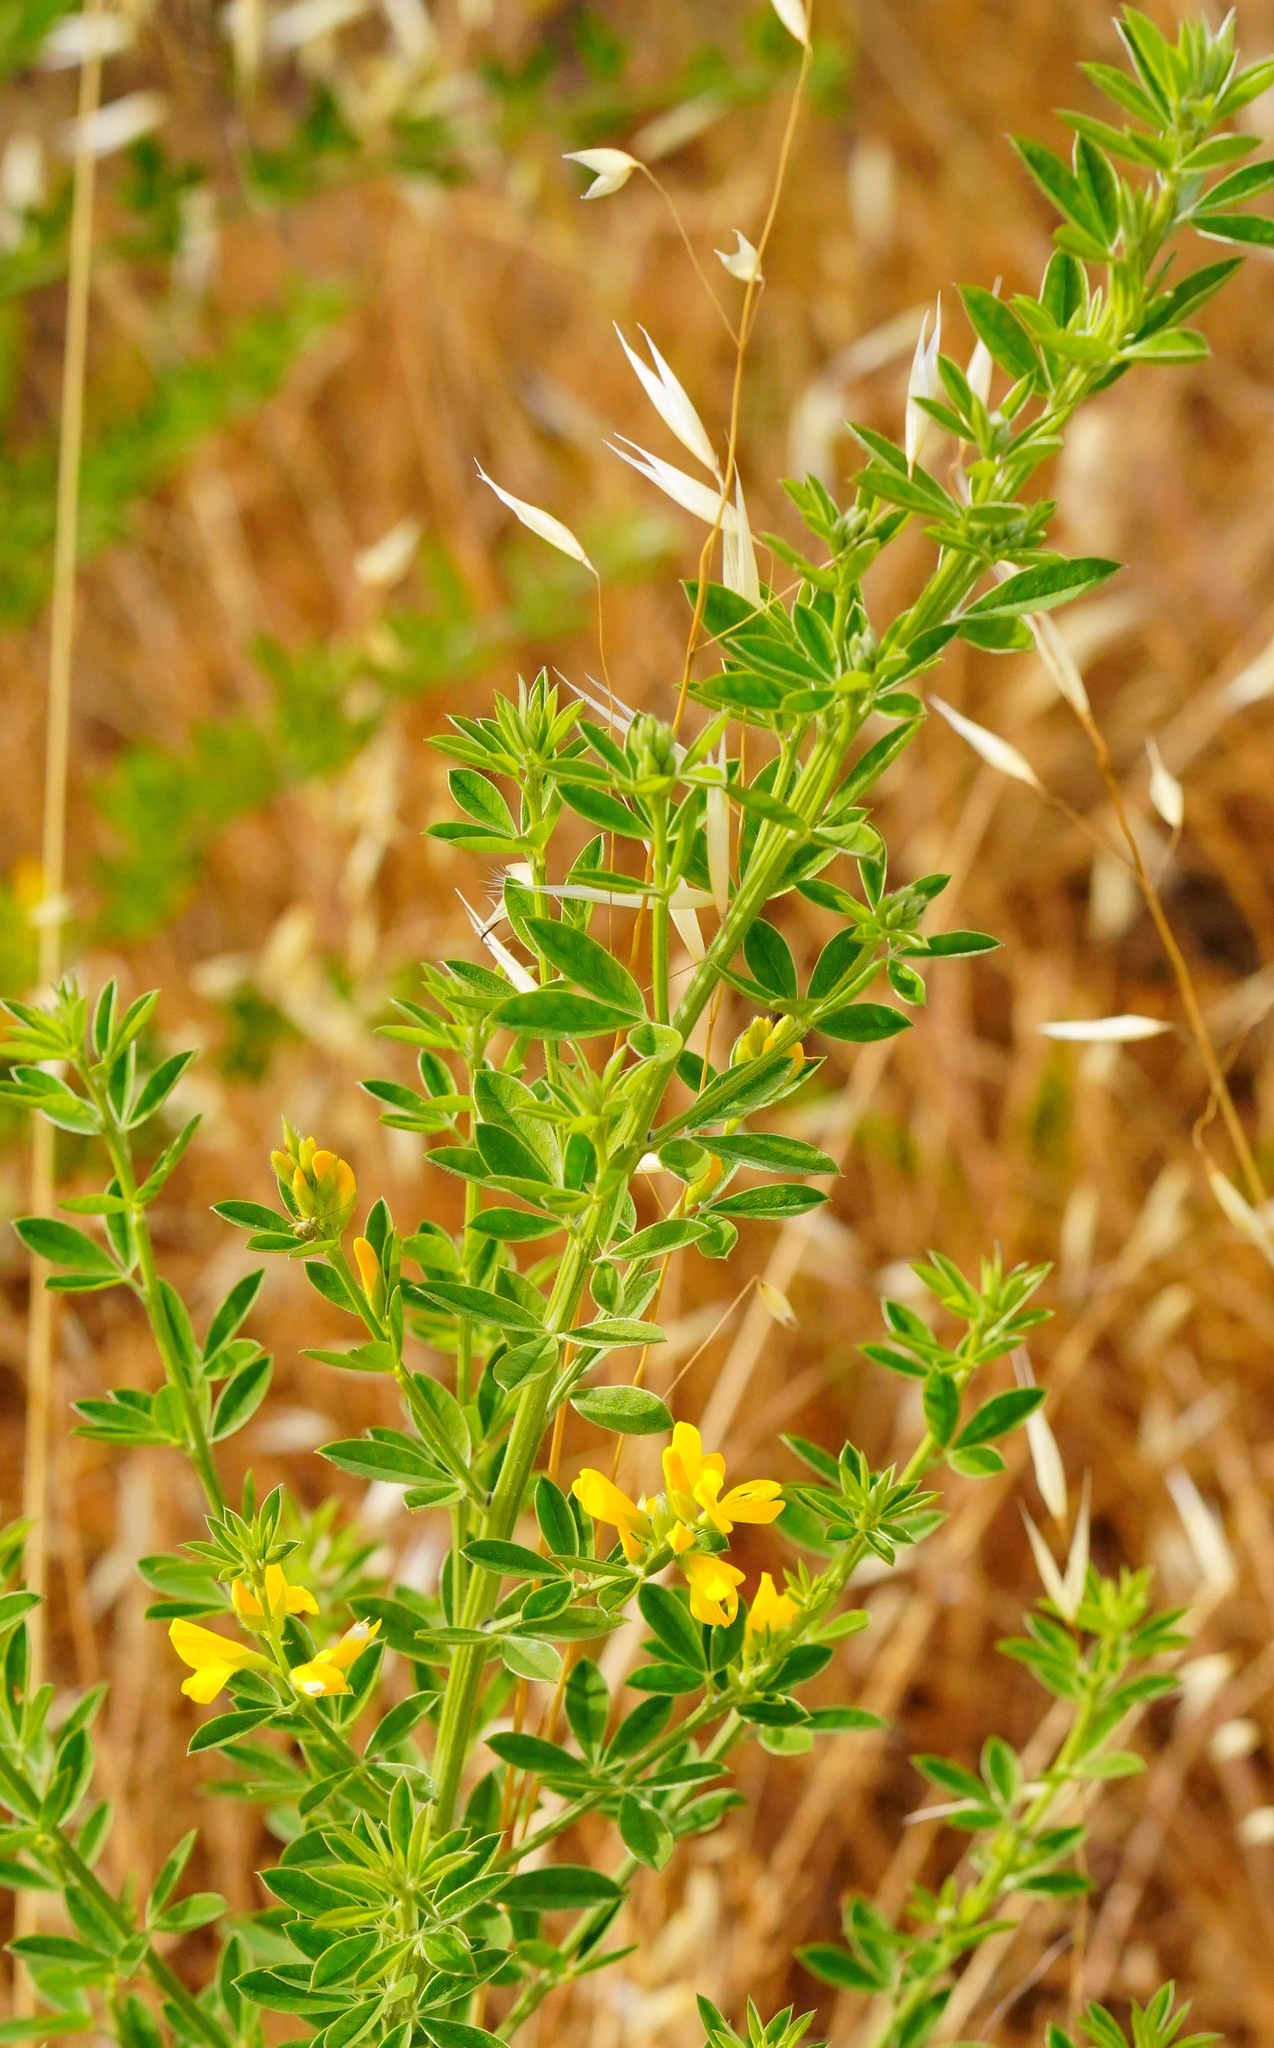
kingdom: Plantae
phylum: Tracheophyta
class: Magnoliopsida
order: Fabales
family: Fabaceae
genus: Genista
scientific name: Genista monspessulana
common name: Montpellier broom
